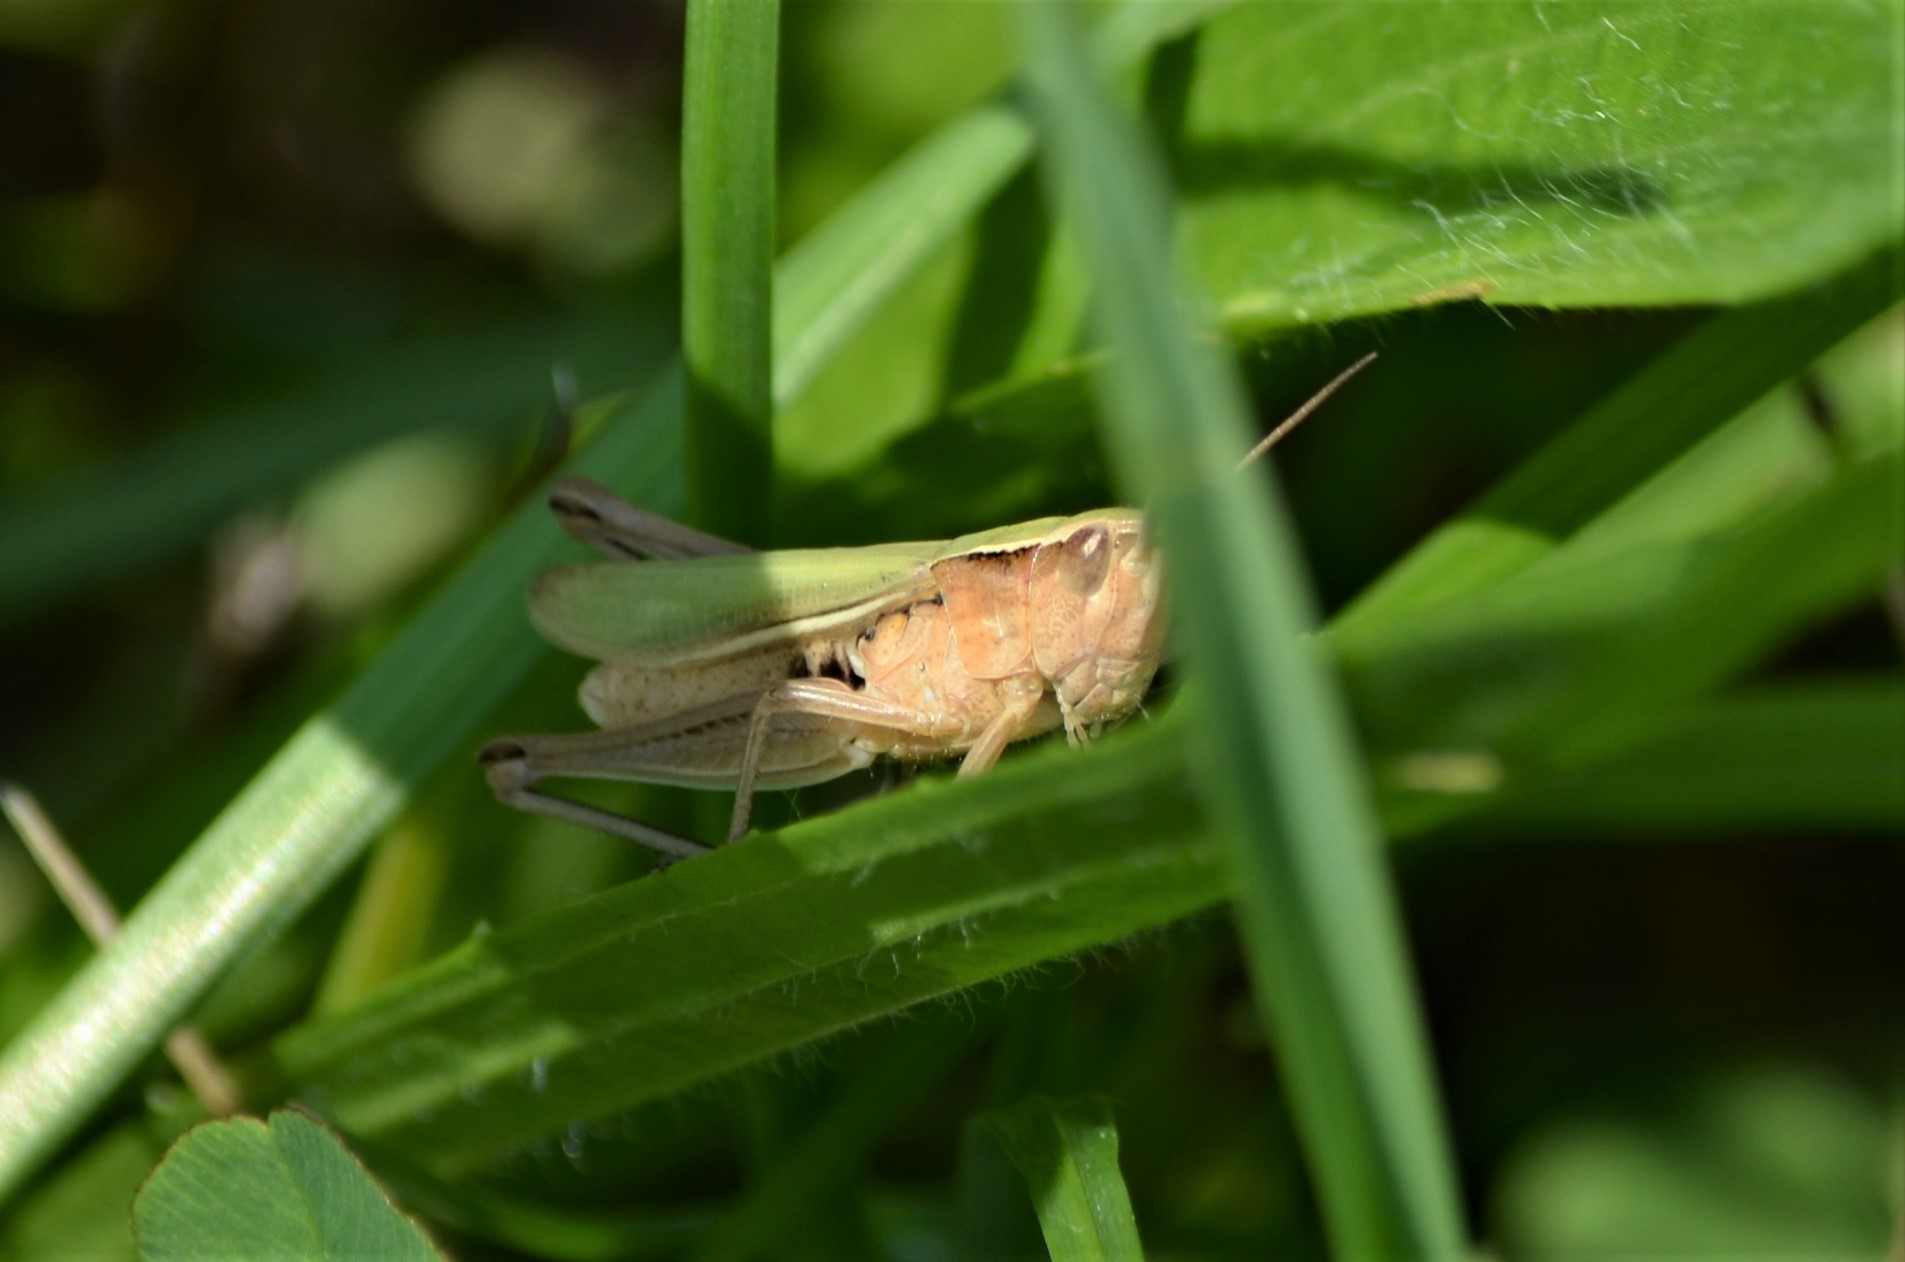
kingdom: Animalia
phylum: Arthropoda
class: Insecta
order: Orthoptera
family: Acrididae
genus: Chorthippus
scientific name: Chorthippus albomarginatus
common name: Lesser marsh grasshopper
